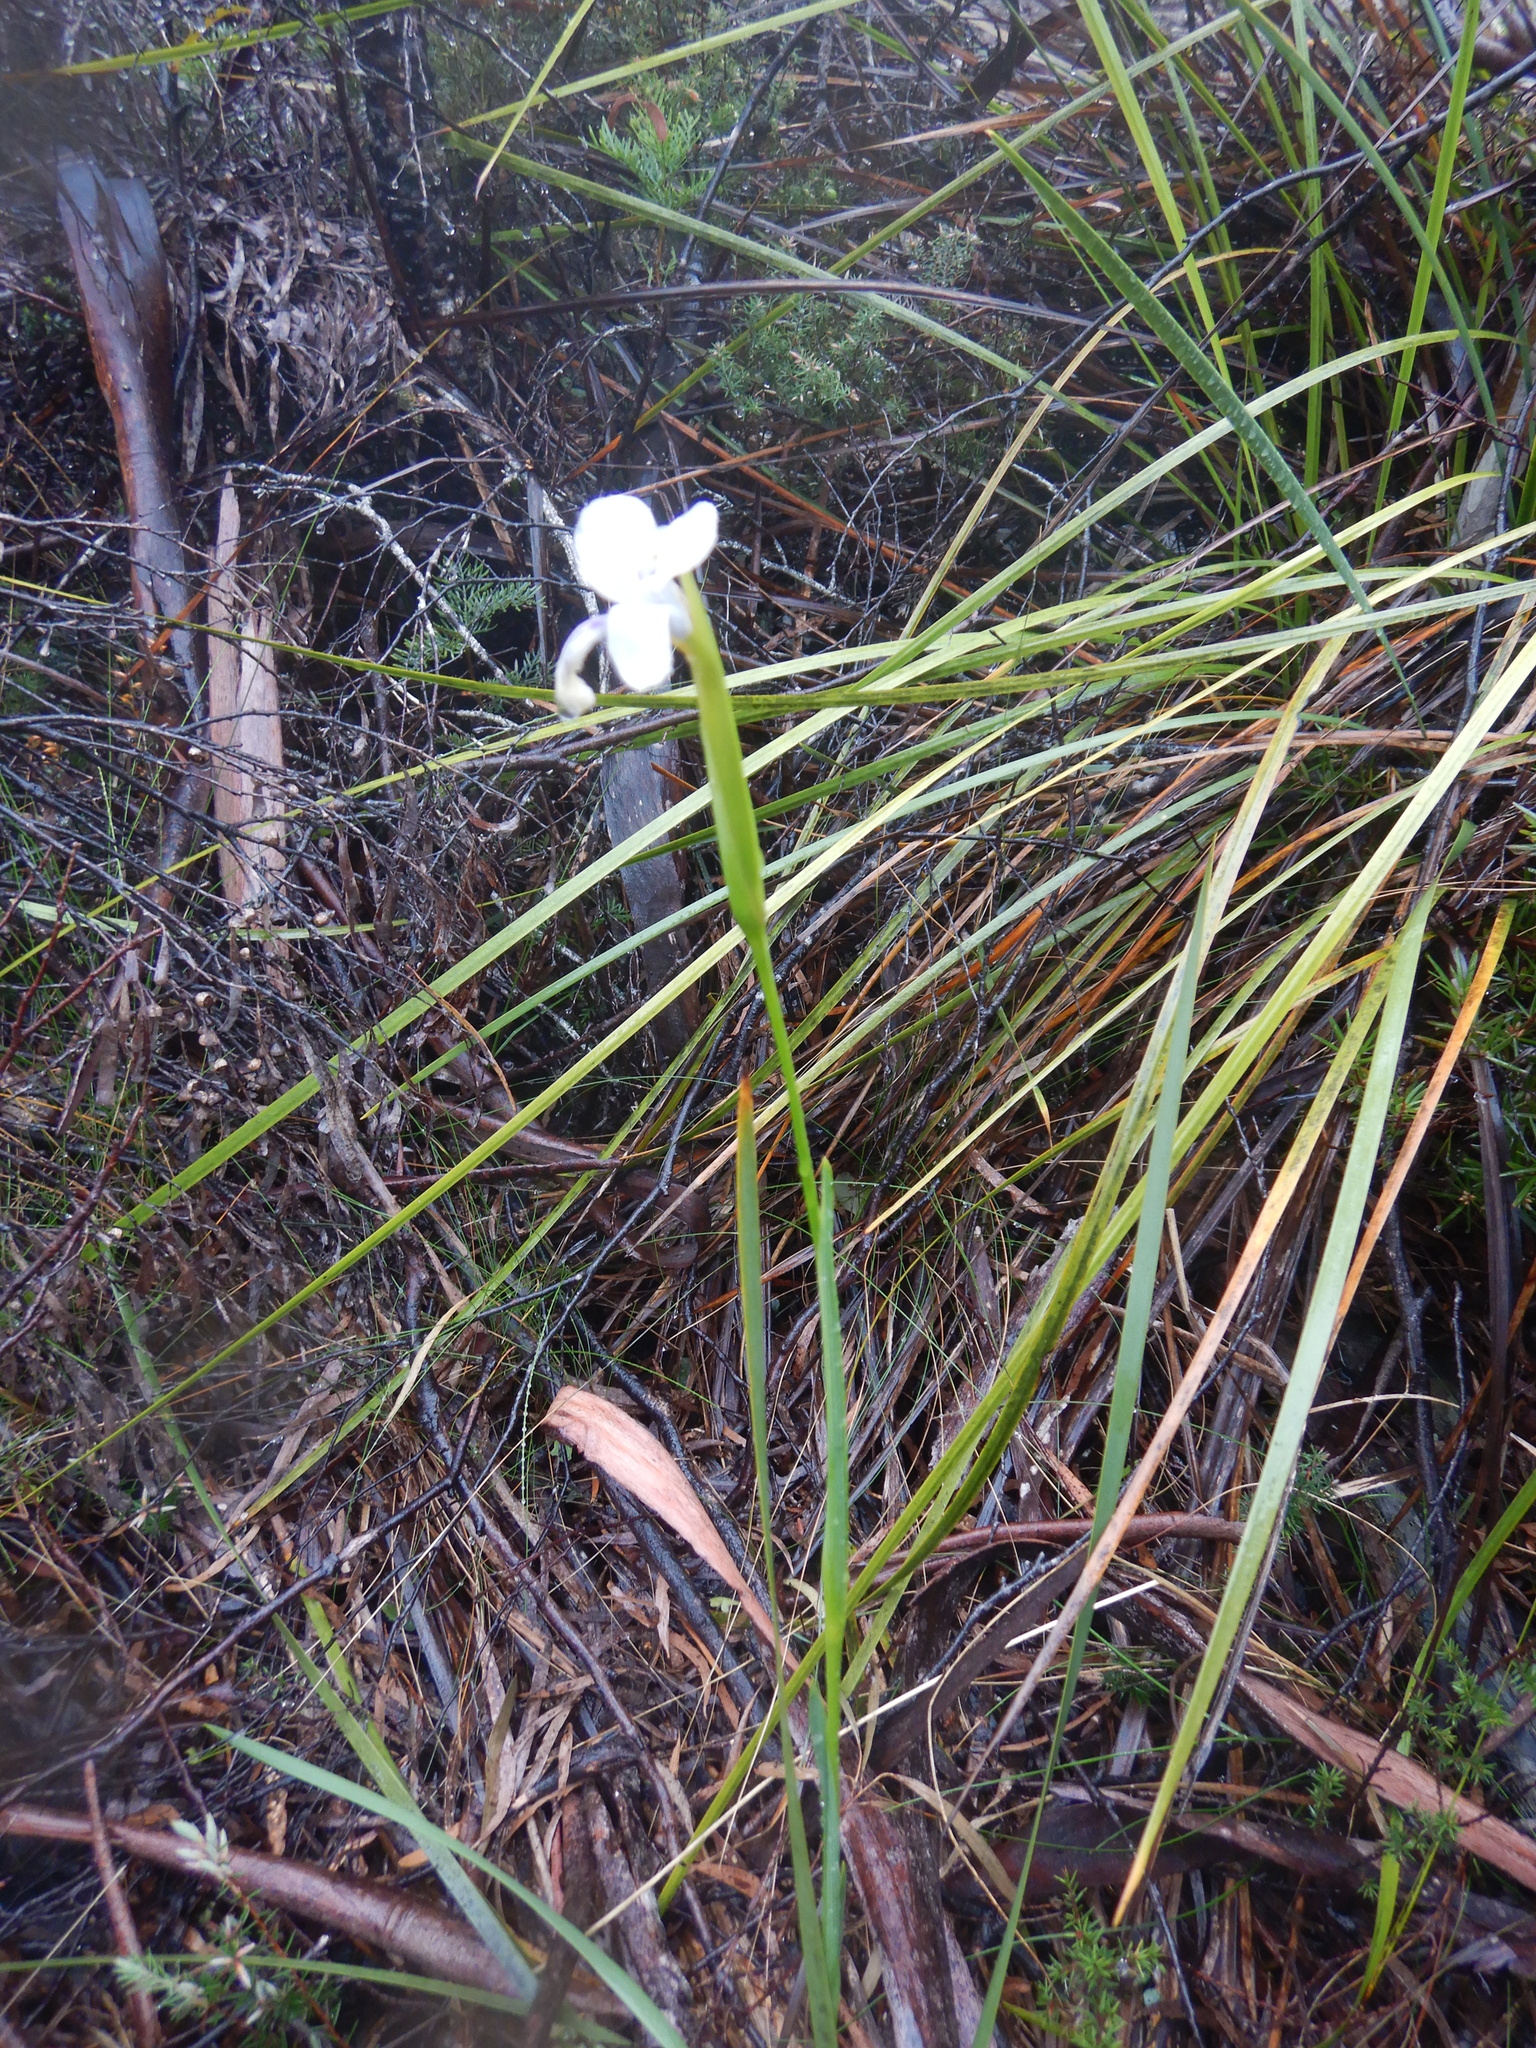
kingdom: Plantae
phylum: Tracheophyta
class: Liliopsida
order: Asparagales
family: Iridaceae
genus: Diplarrena
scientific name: Diplarrena moraea
